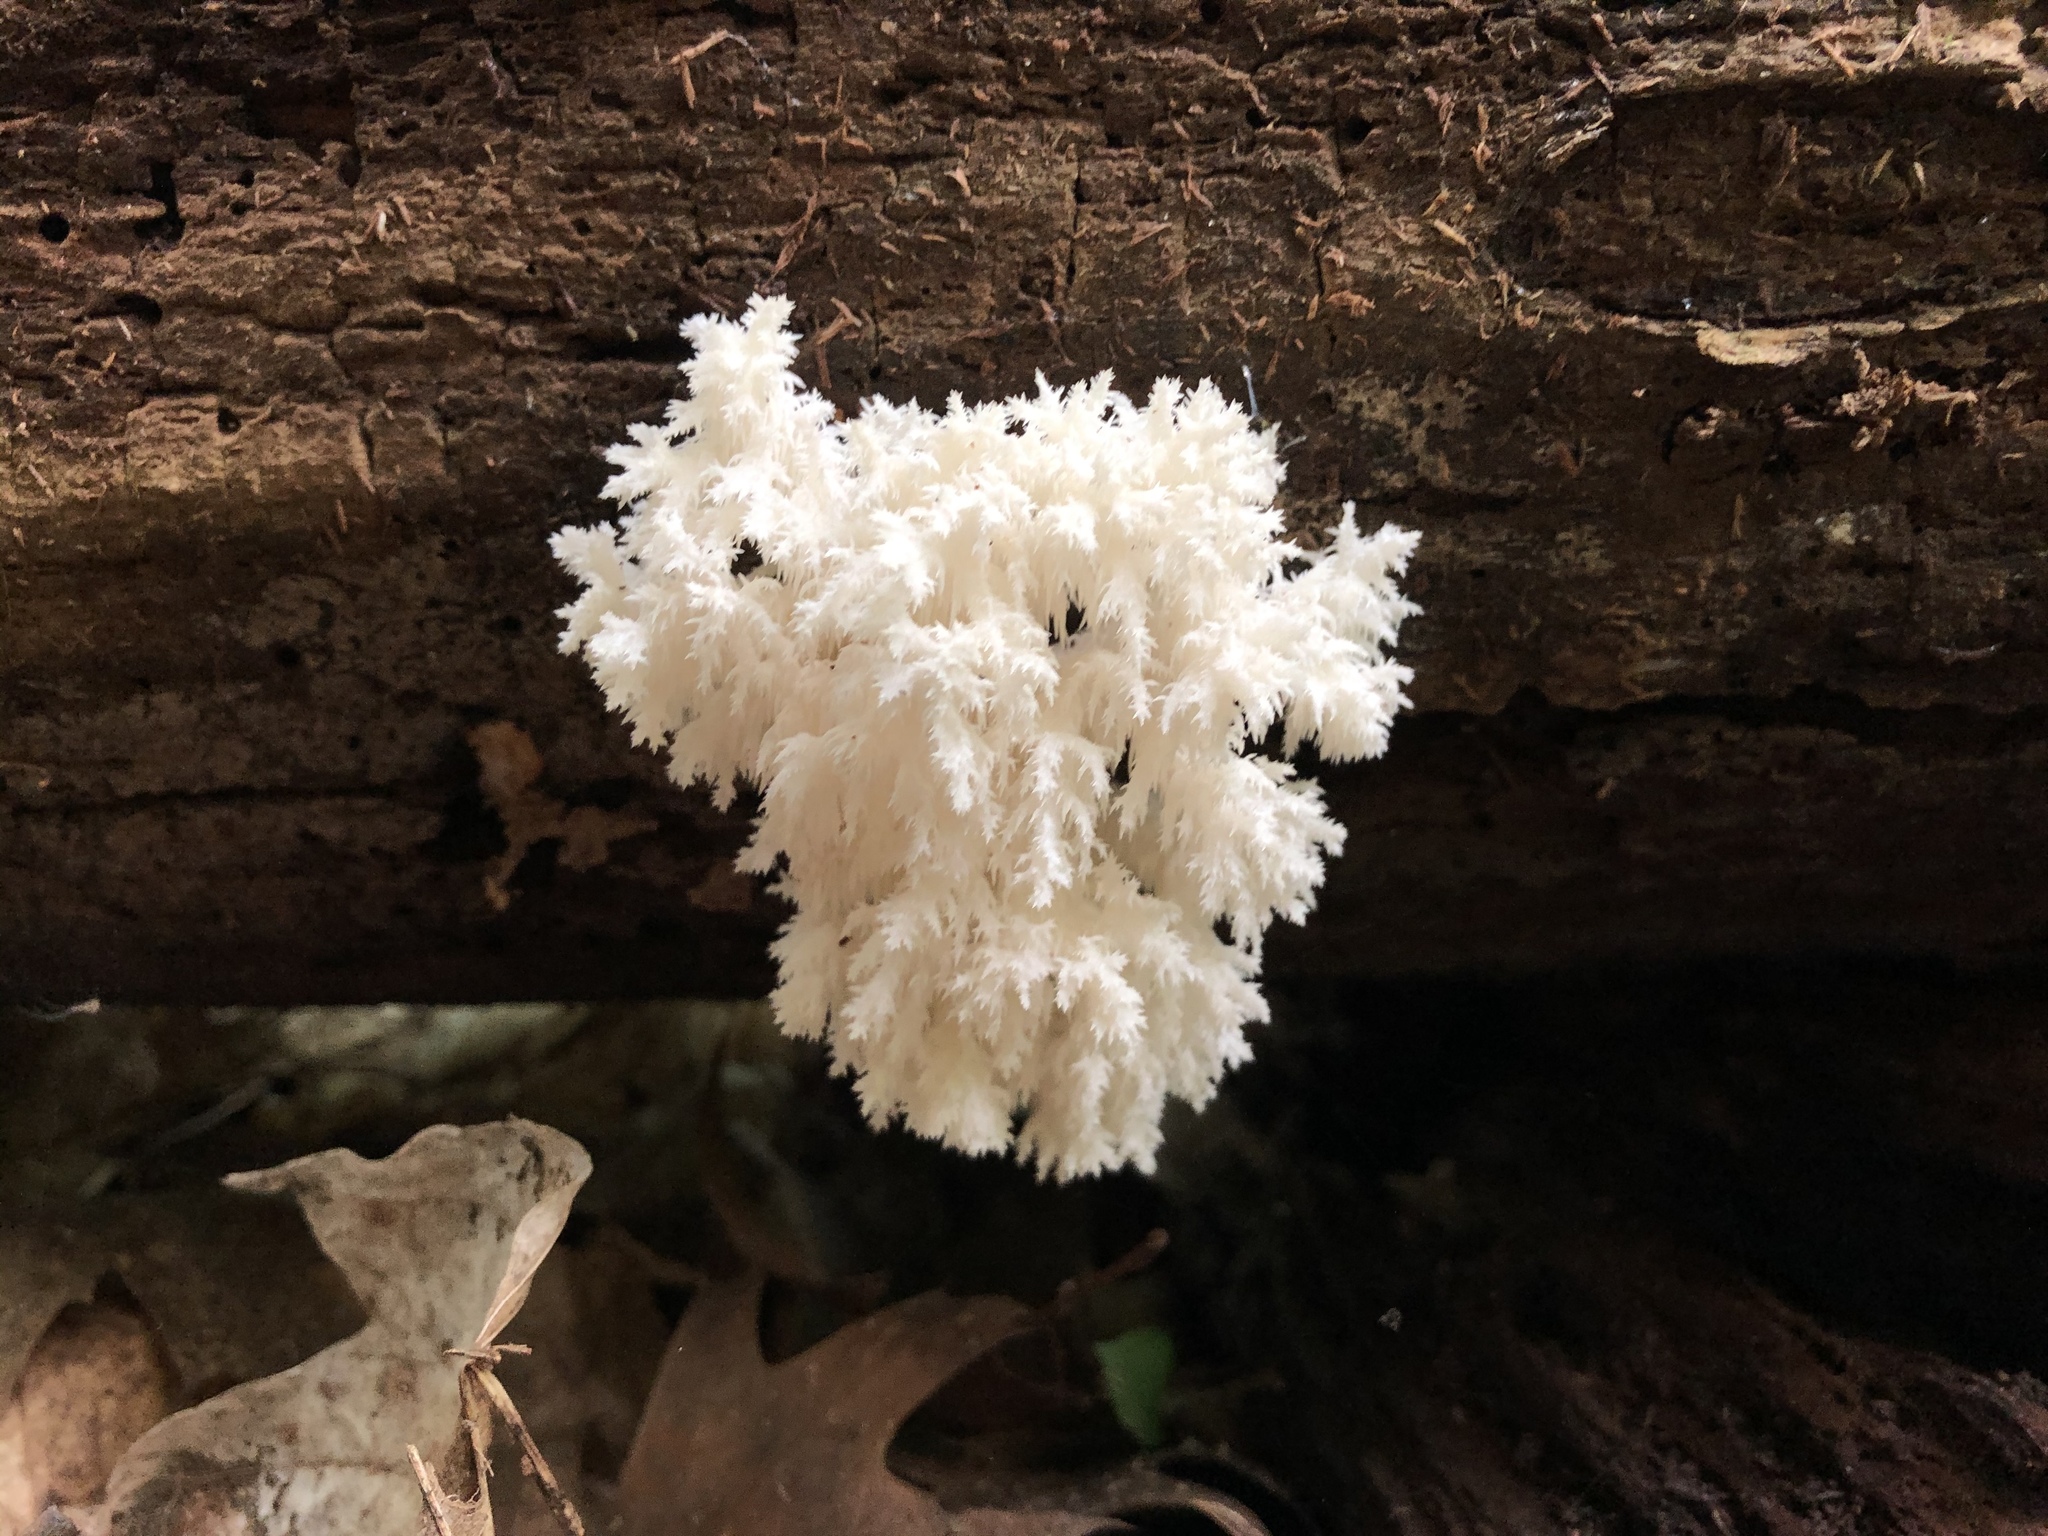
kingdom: Fungi
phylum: Basidiomycota
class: Agaricomycetes
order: Russulales
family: Hericiaceae
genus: Hericium
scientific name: Hericium coralloides
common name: Coral tooth
